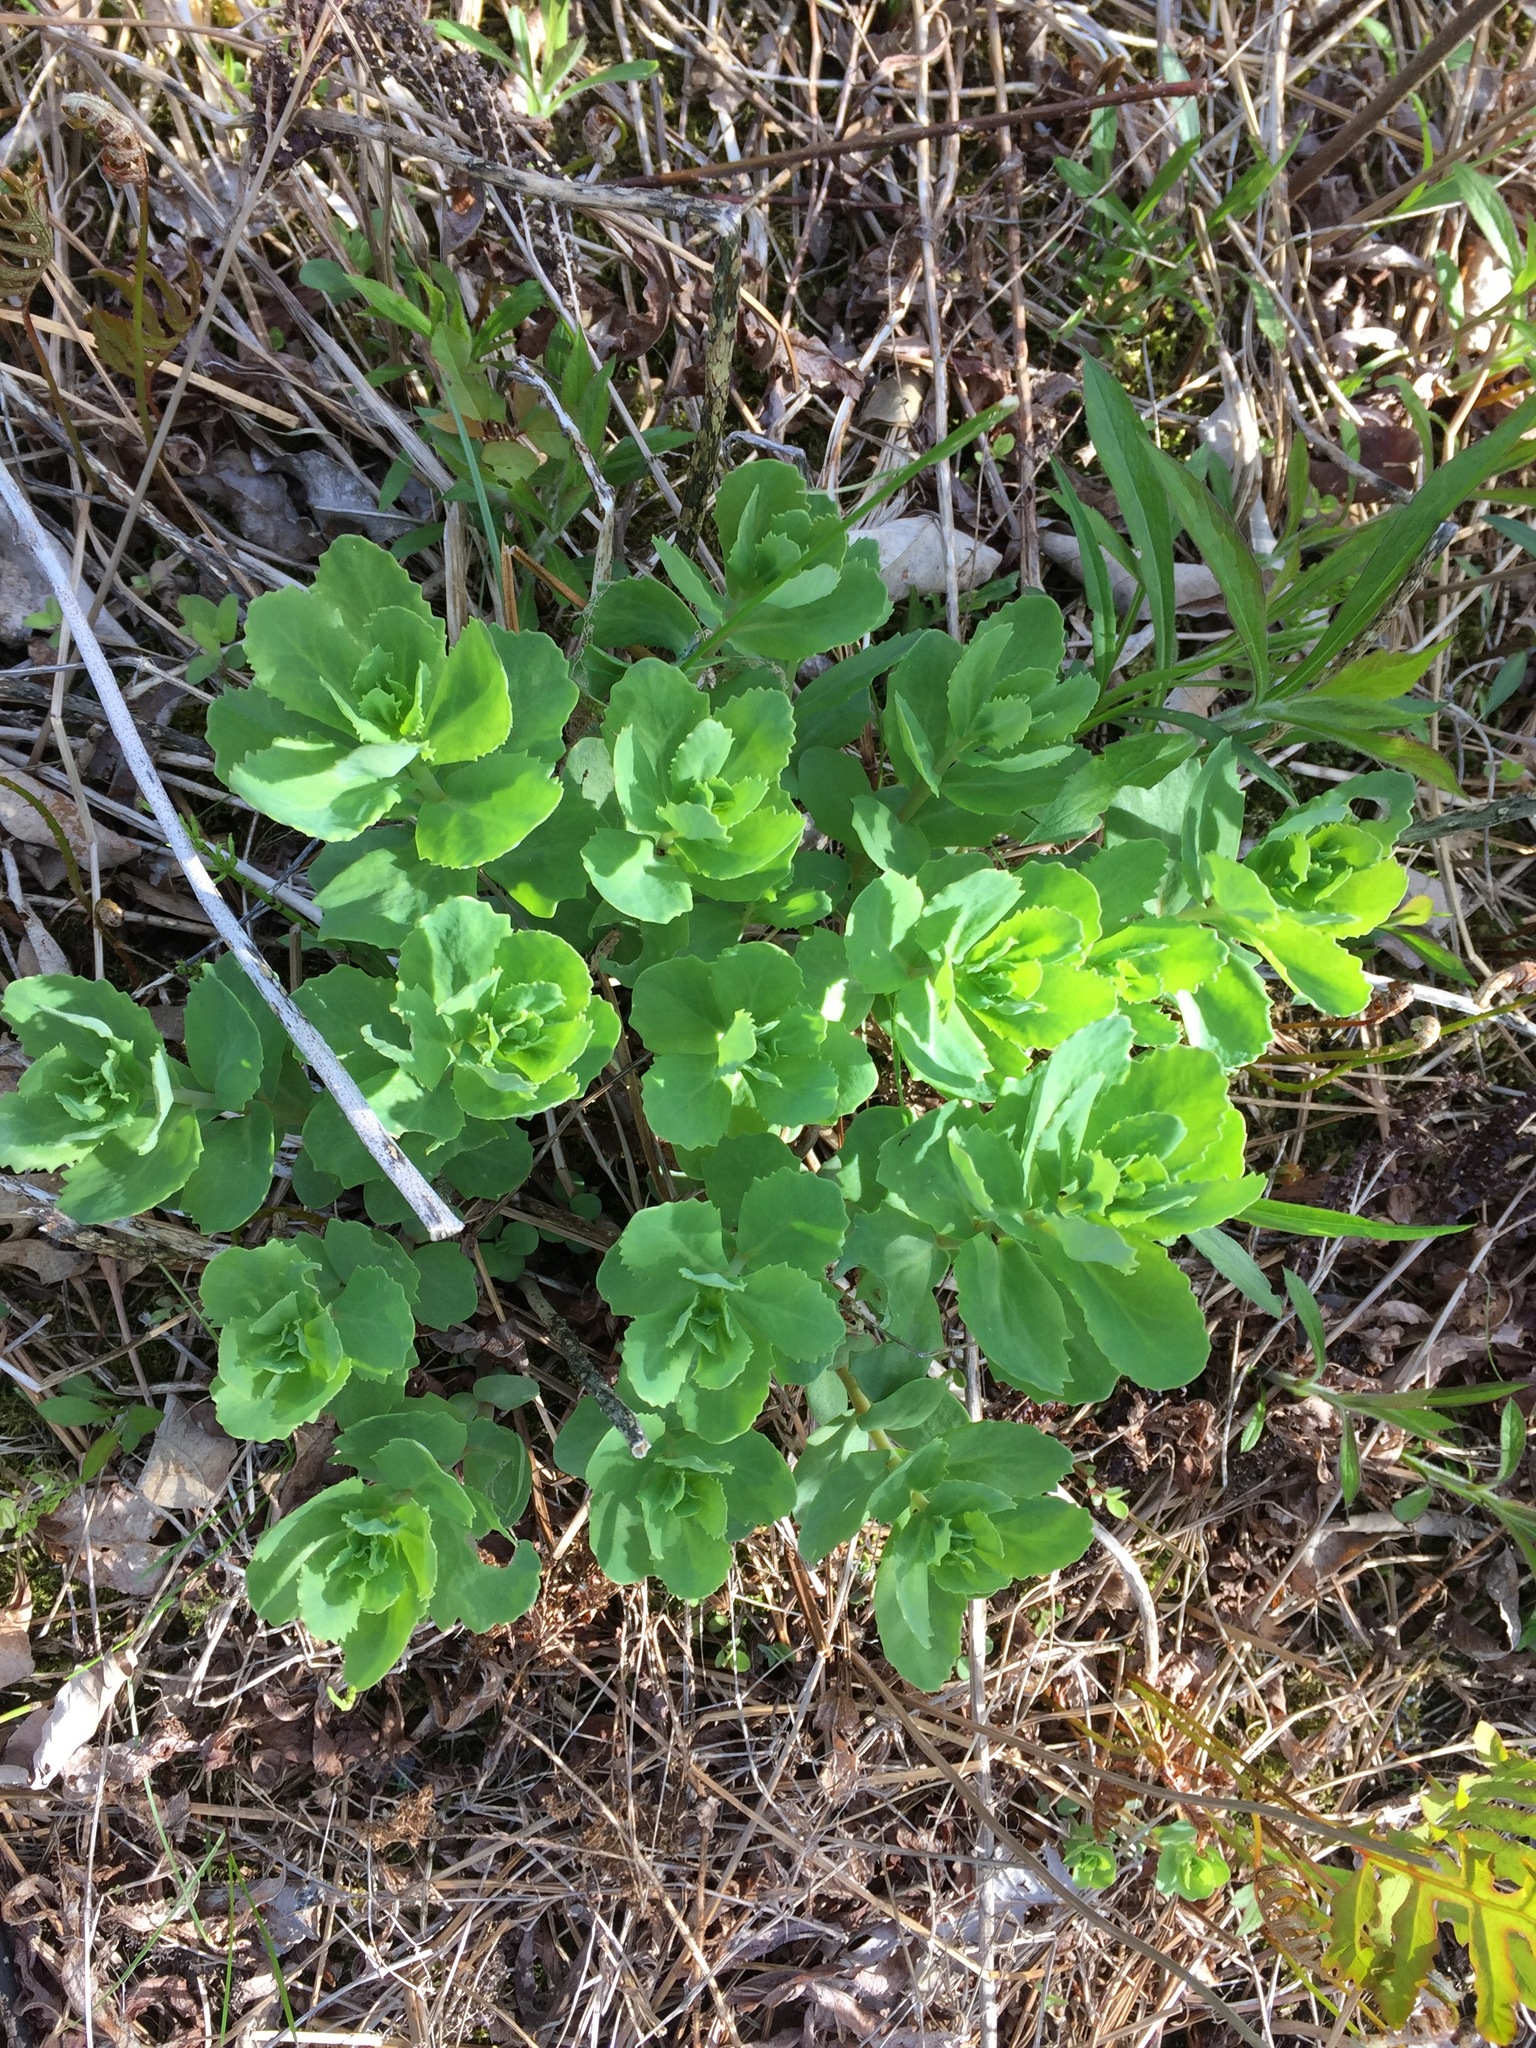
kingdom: Plantae
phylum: Tracheophyta
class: Magnoliopsida
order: Saxifragales
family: Crassulaceae
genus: Hylotelephium
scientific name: Hylotelephium telephium
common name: Live-forever
